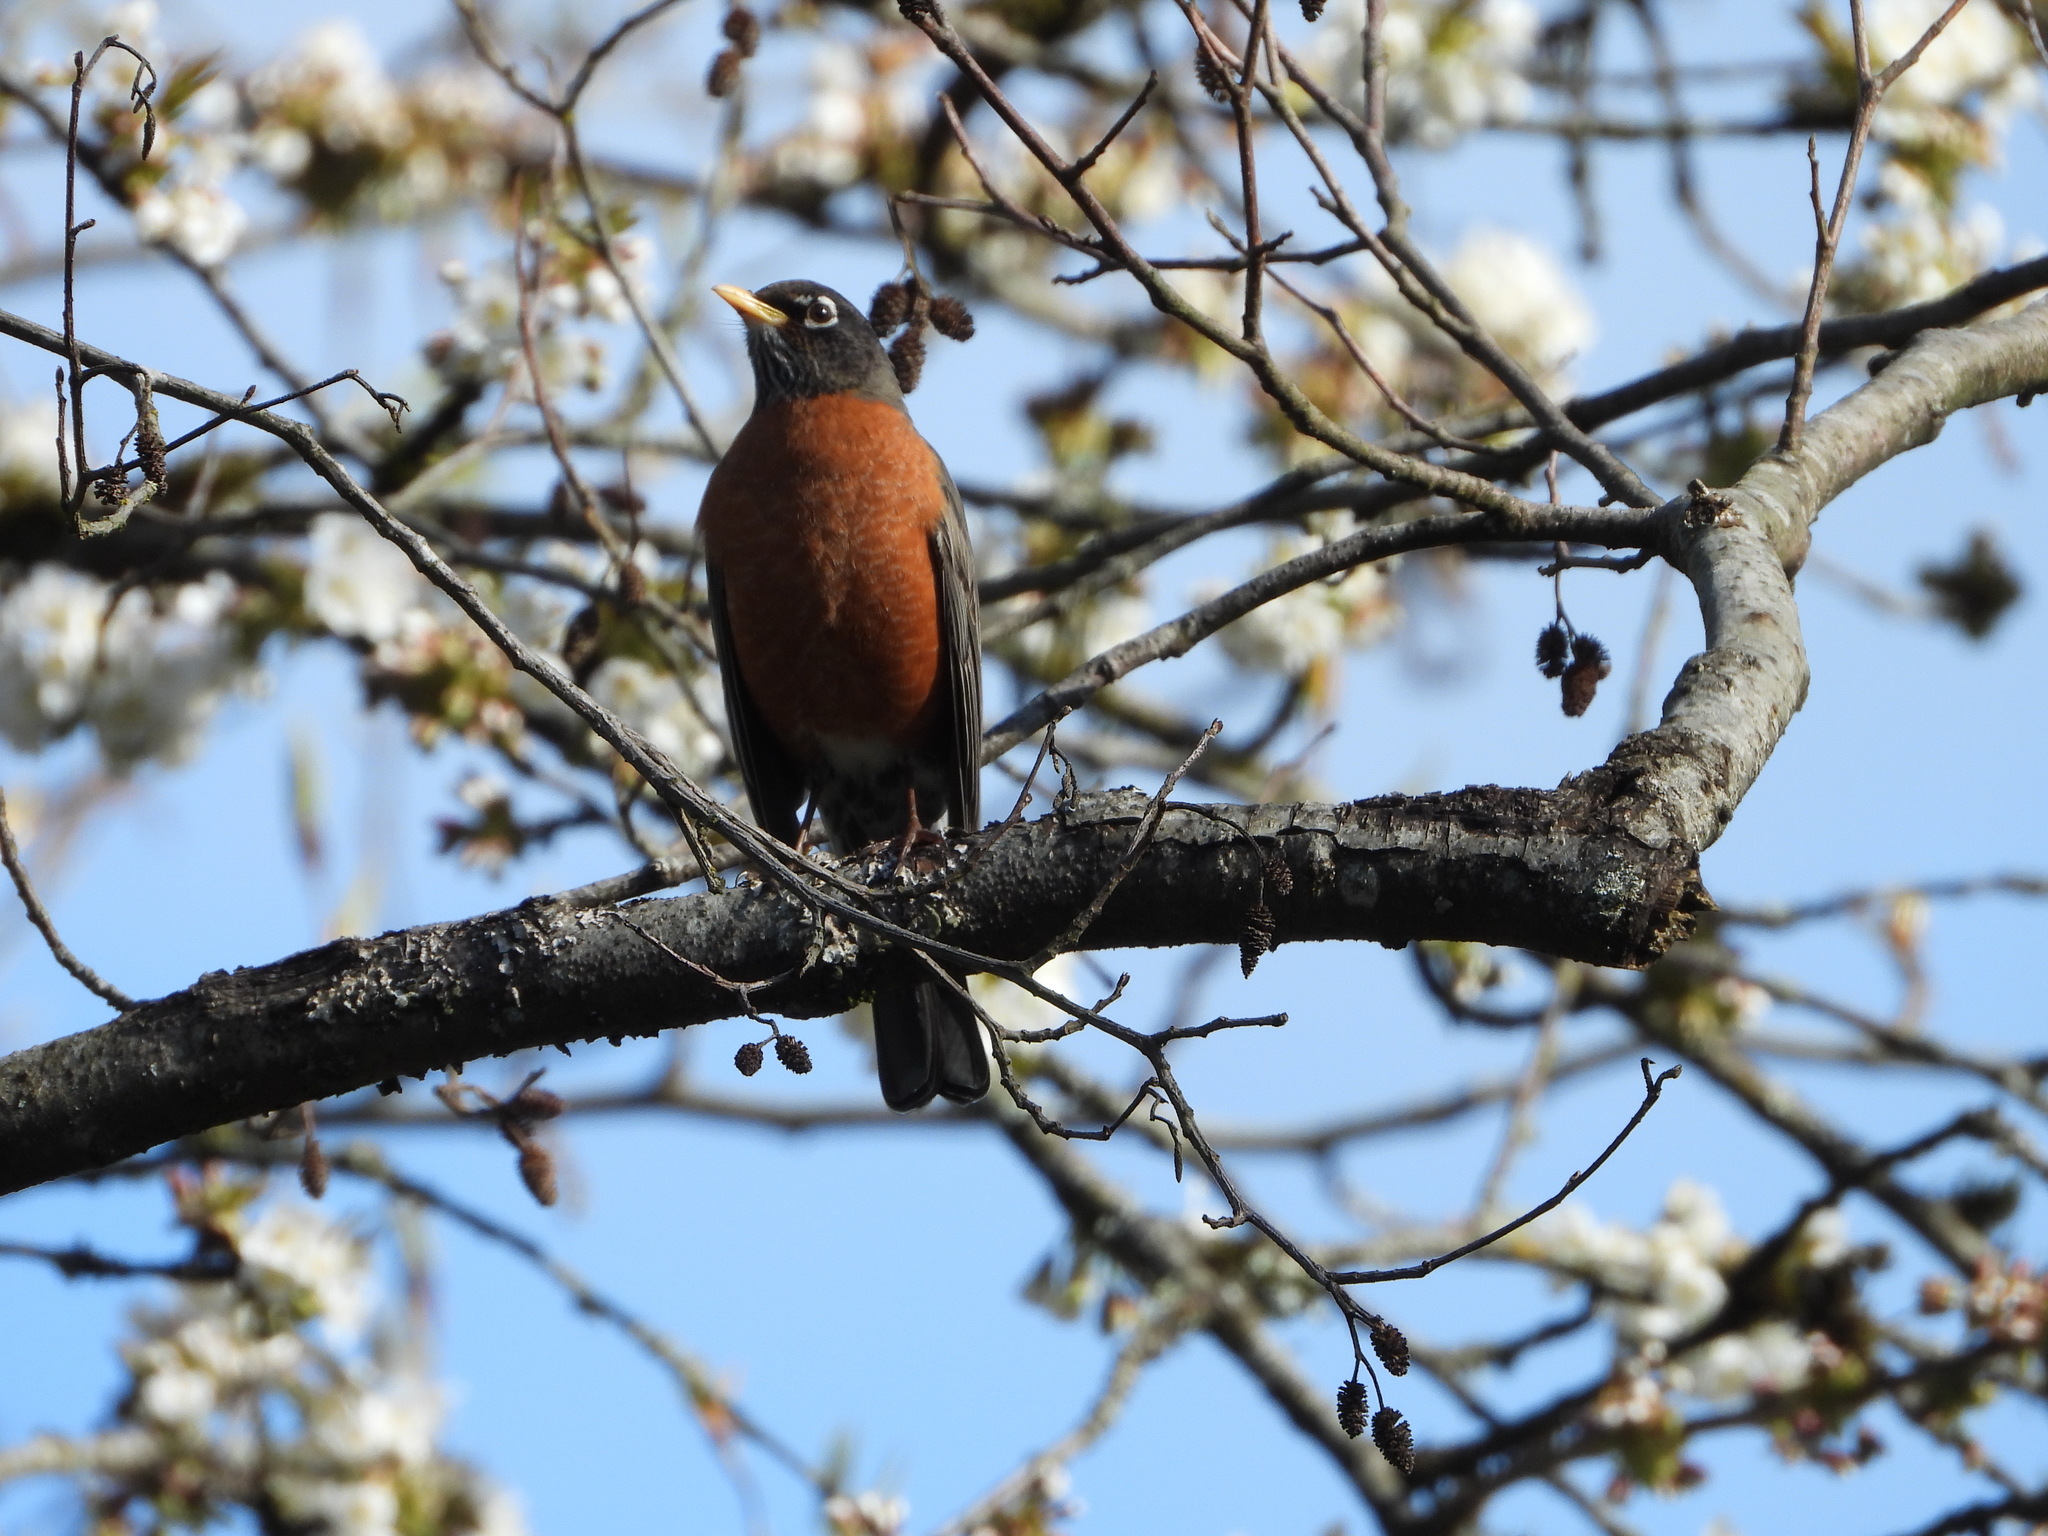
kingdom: Animalia
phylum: Chordata
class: Aves
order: Passeriformes
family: Turdidae
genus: Turdus
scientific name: Turdus migratorius
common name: American robin
